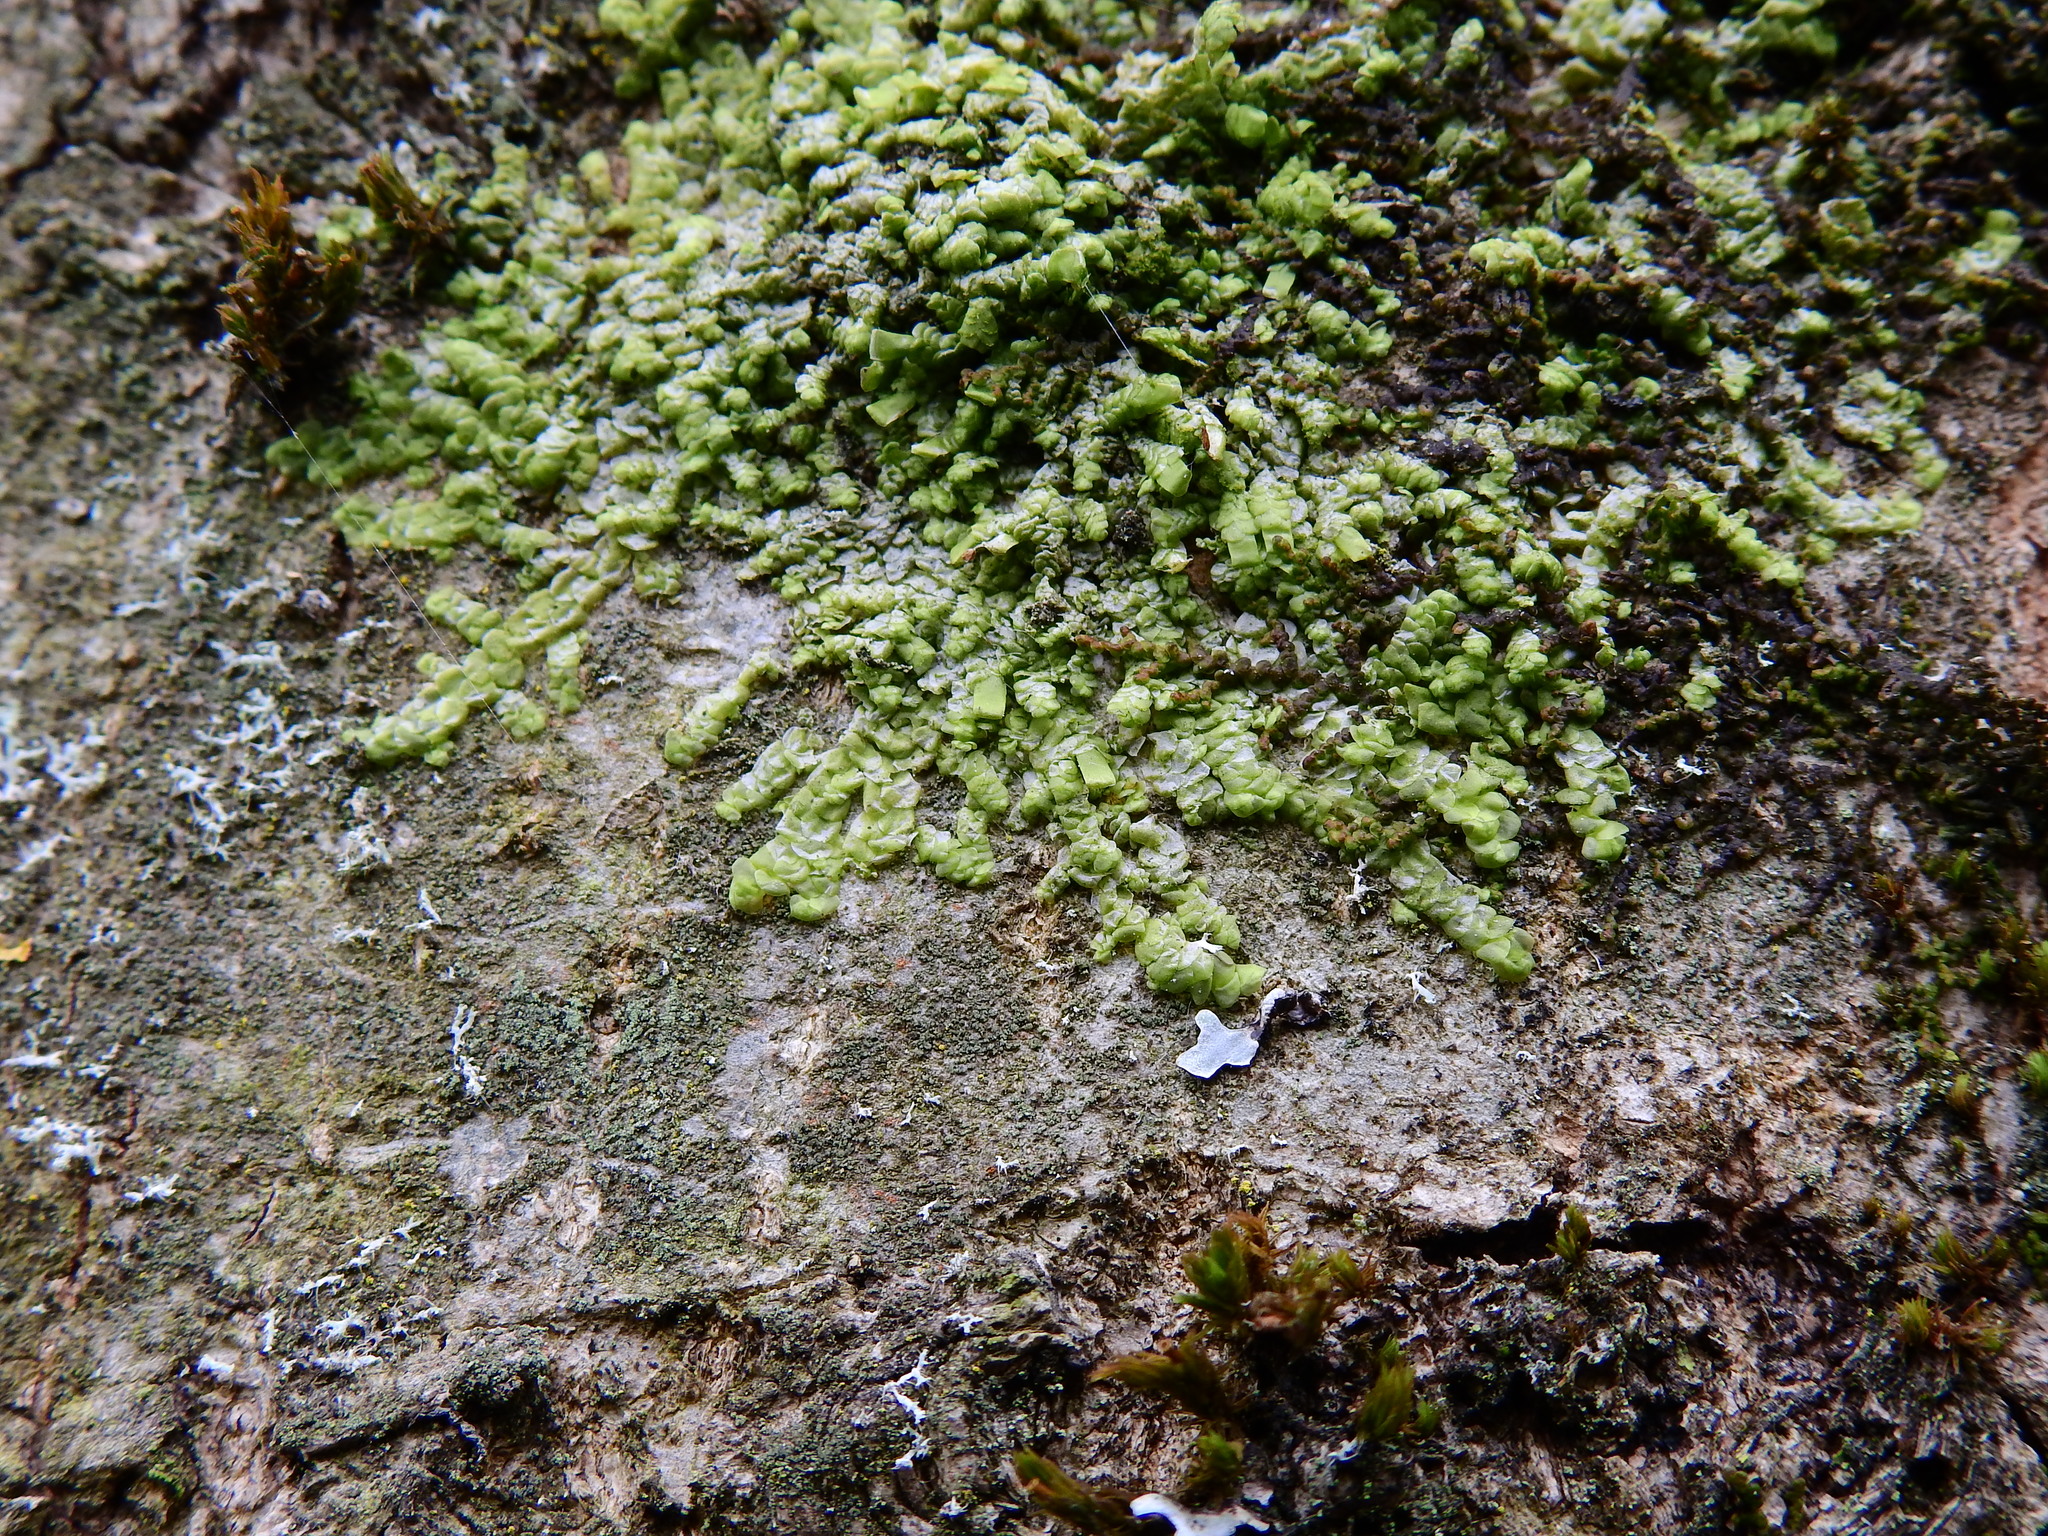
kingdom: Plantae
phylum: Marchantiophyta
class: Jungermanniopsida
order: Porellales
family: Radulaceae
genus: Radula
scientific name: Radula complanata
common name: Flat-leaved scalewort
